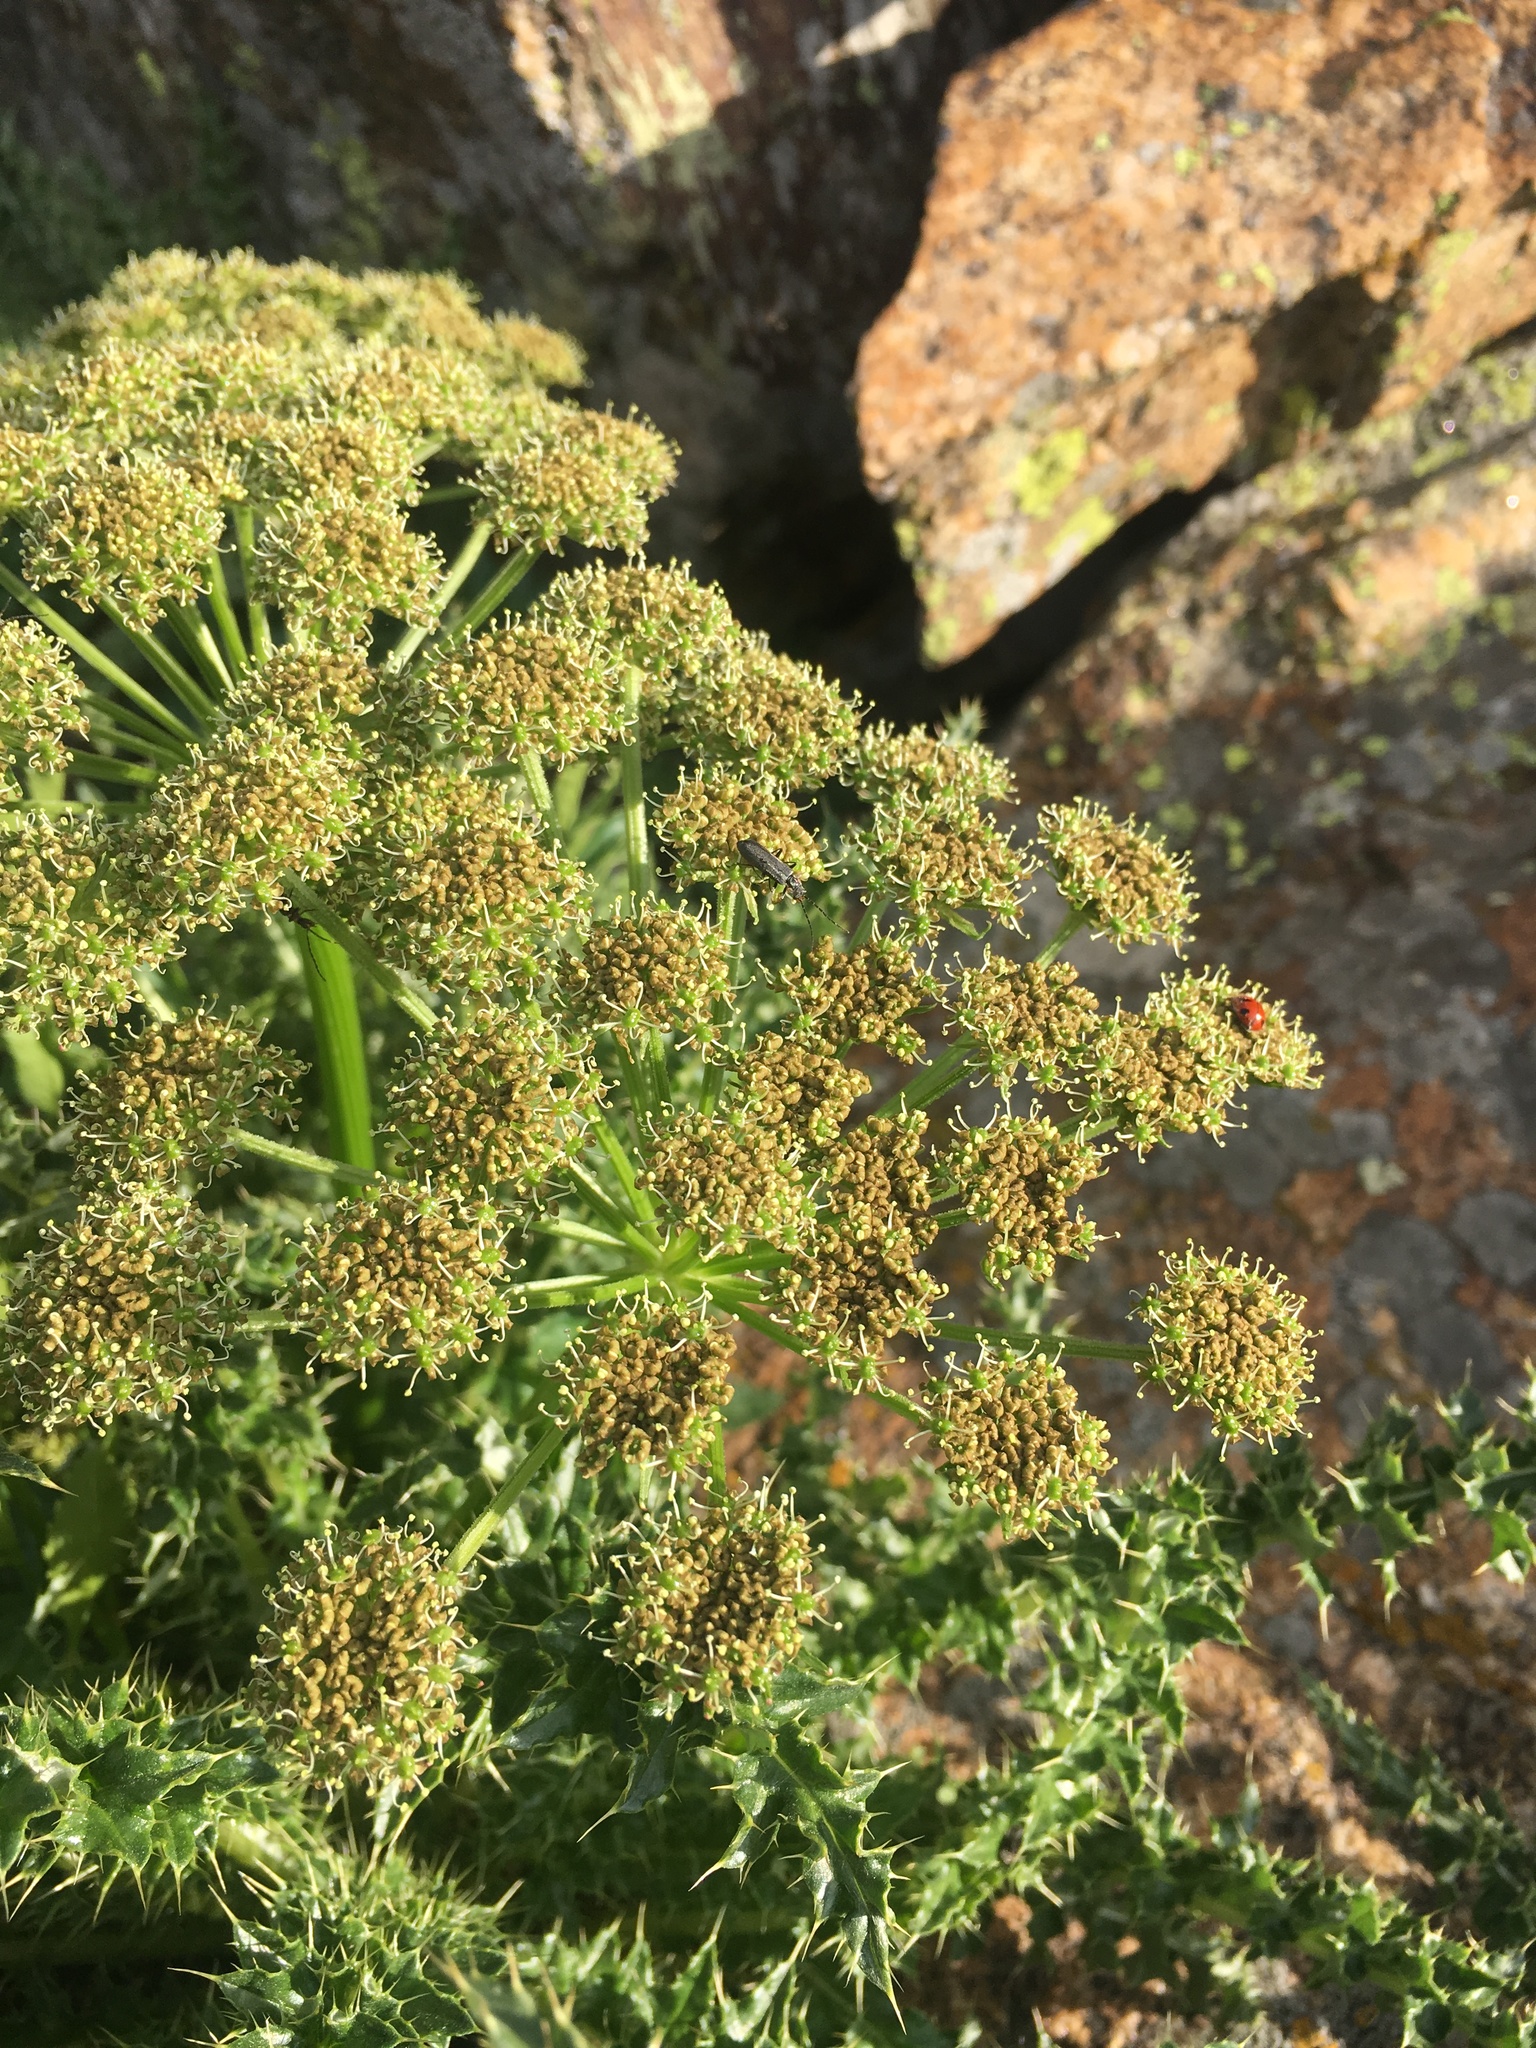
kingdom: Plantae
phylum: Tracheophyta
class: Magnoliopsida
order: Apiales
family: Apiaceae
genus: Angelica
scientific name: Angelica grayi
